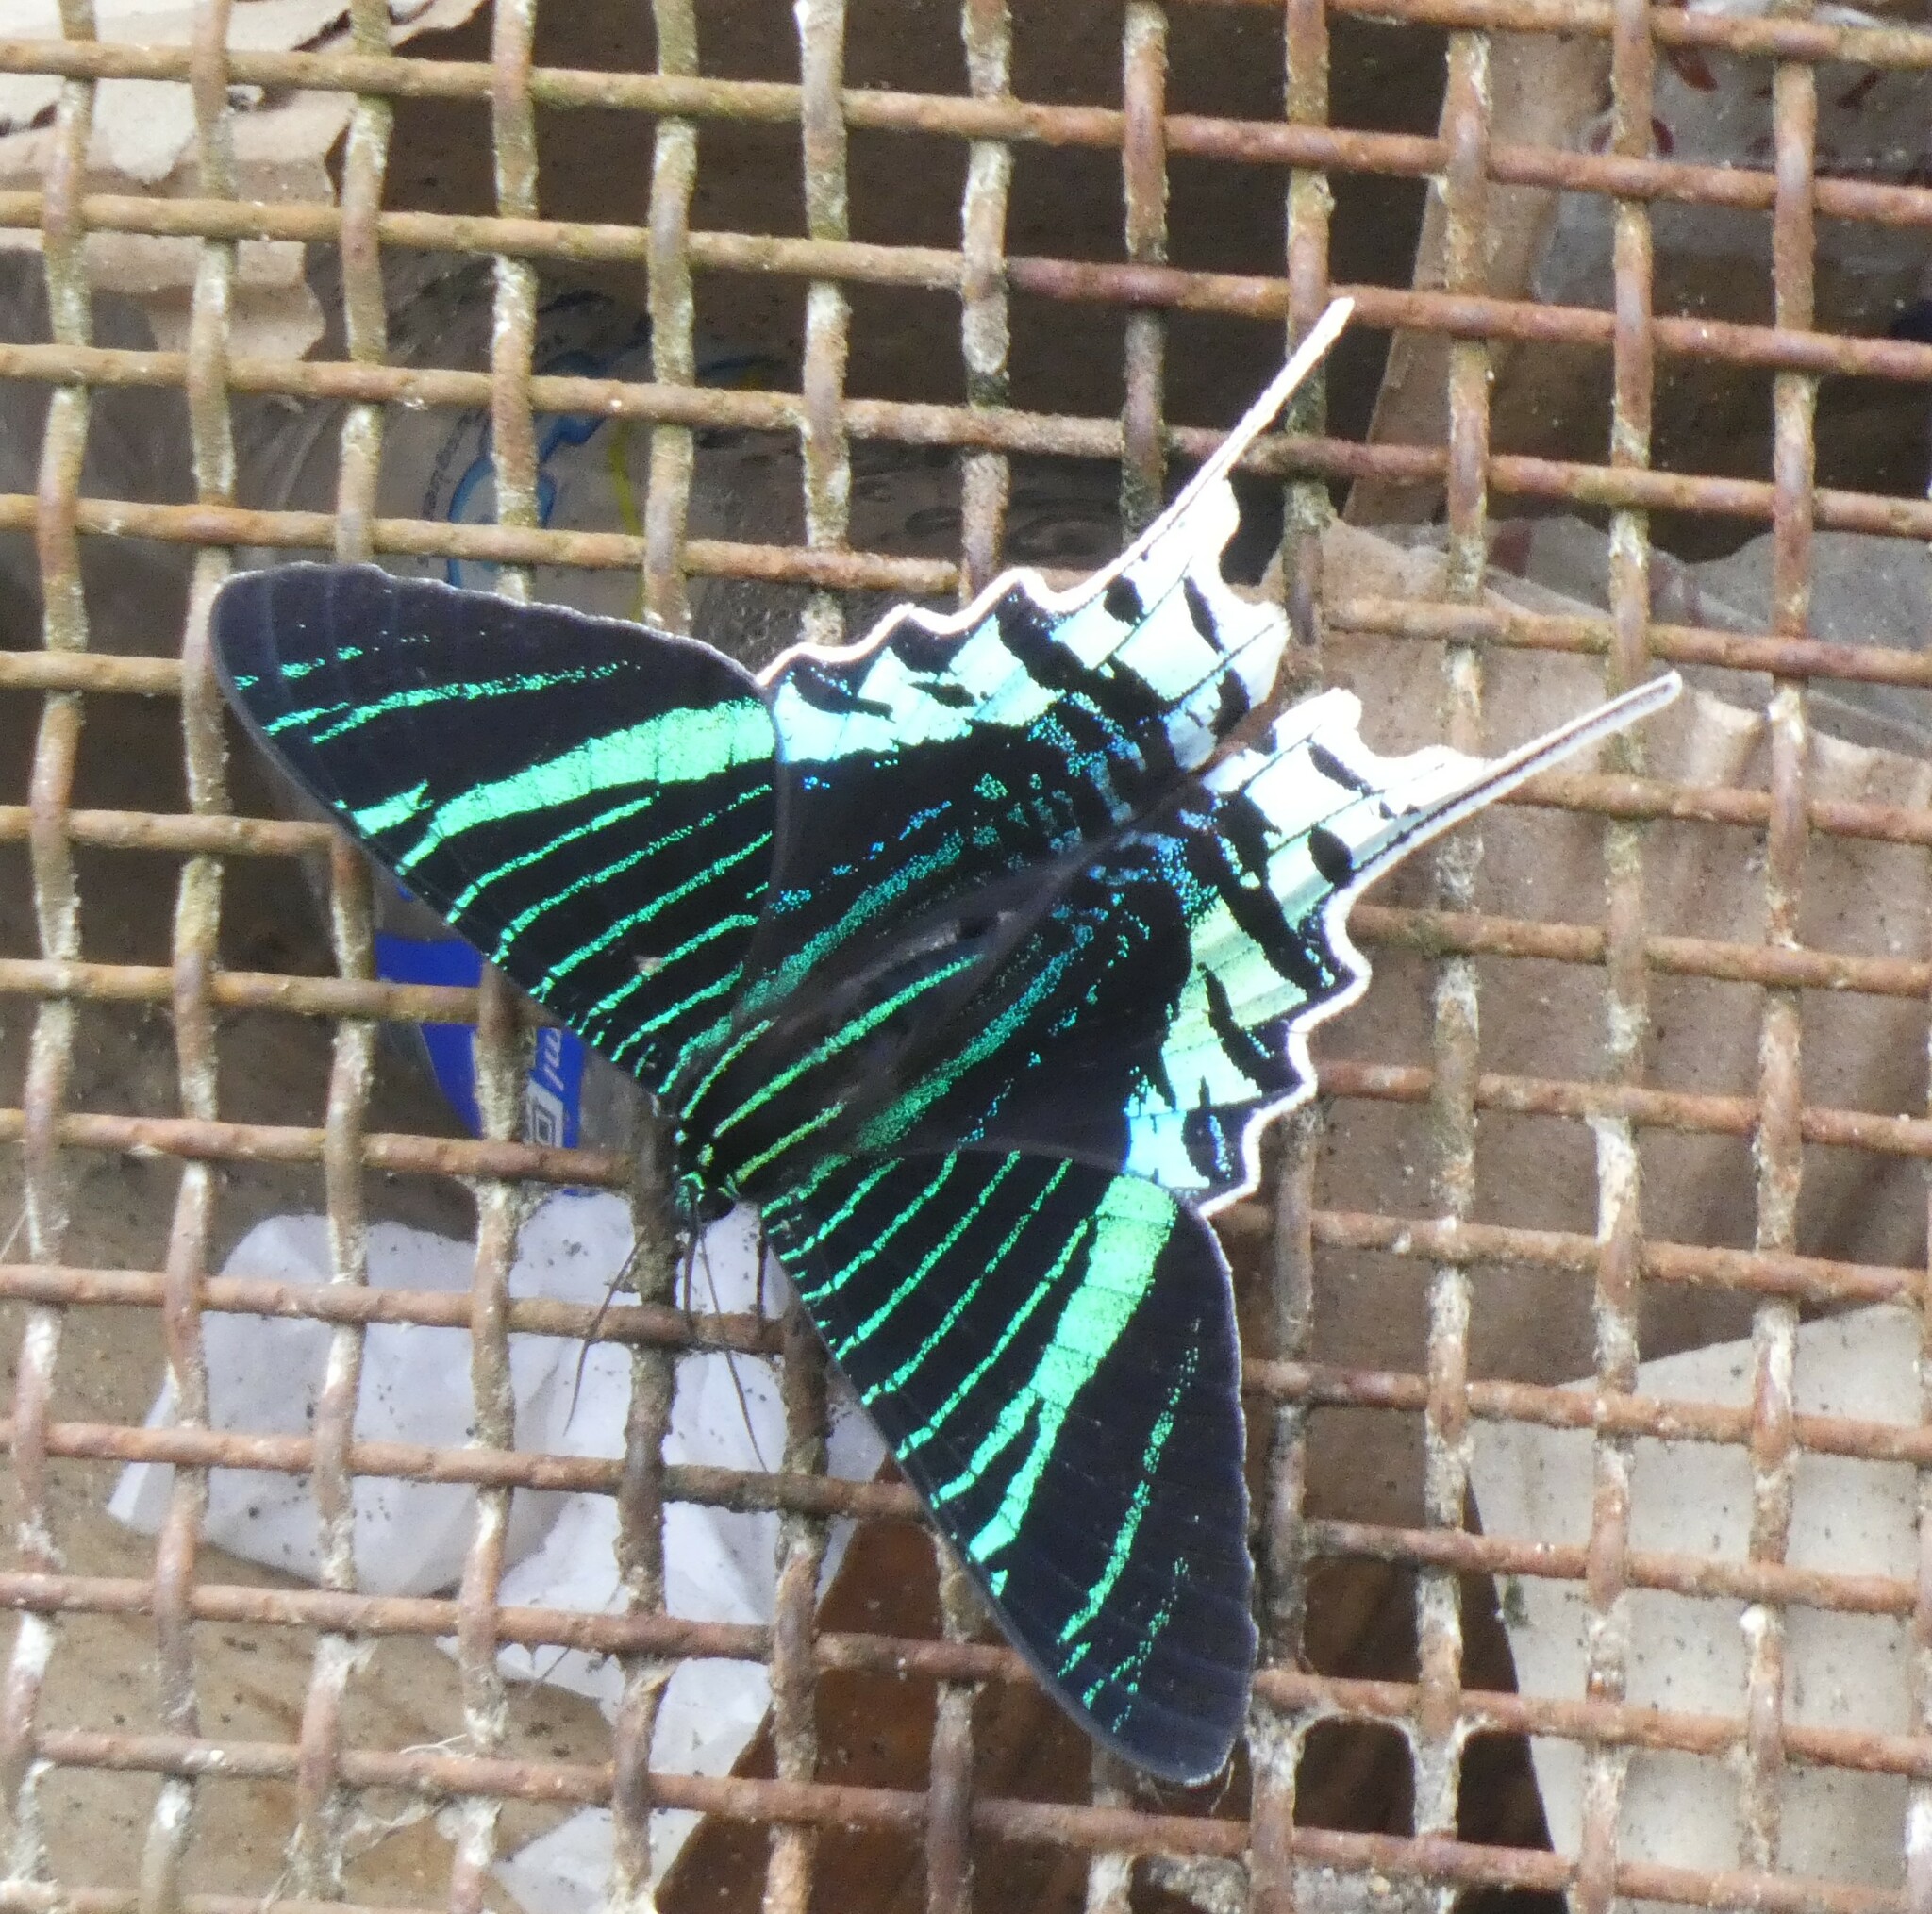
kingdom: Animalia
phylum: Arthropoda
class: Insecta
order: Lepidoptera
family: Uraniidae
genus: Urania
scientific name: Urania leilus
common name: Peacock moth
